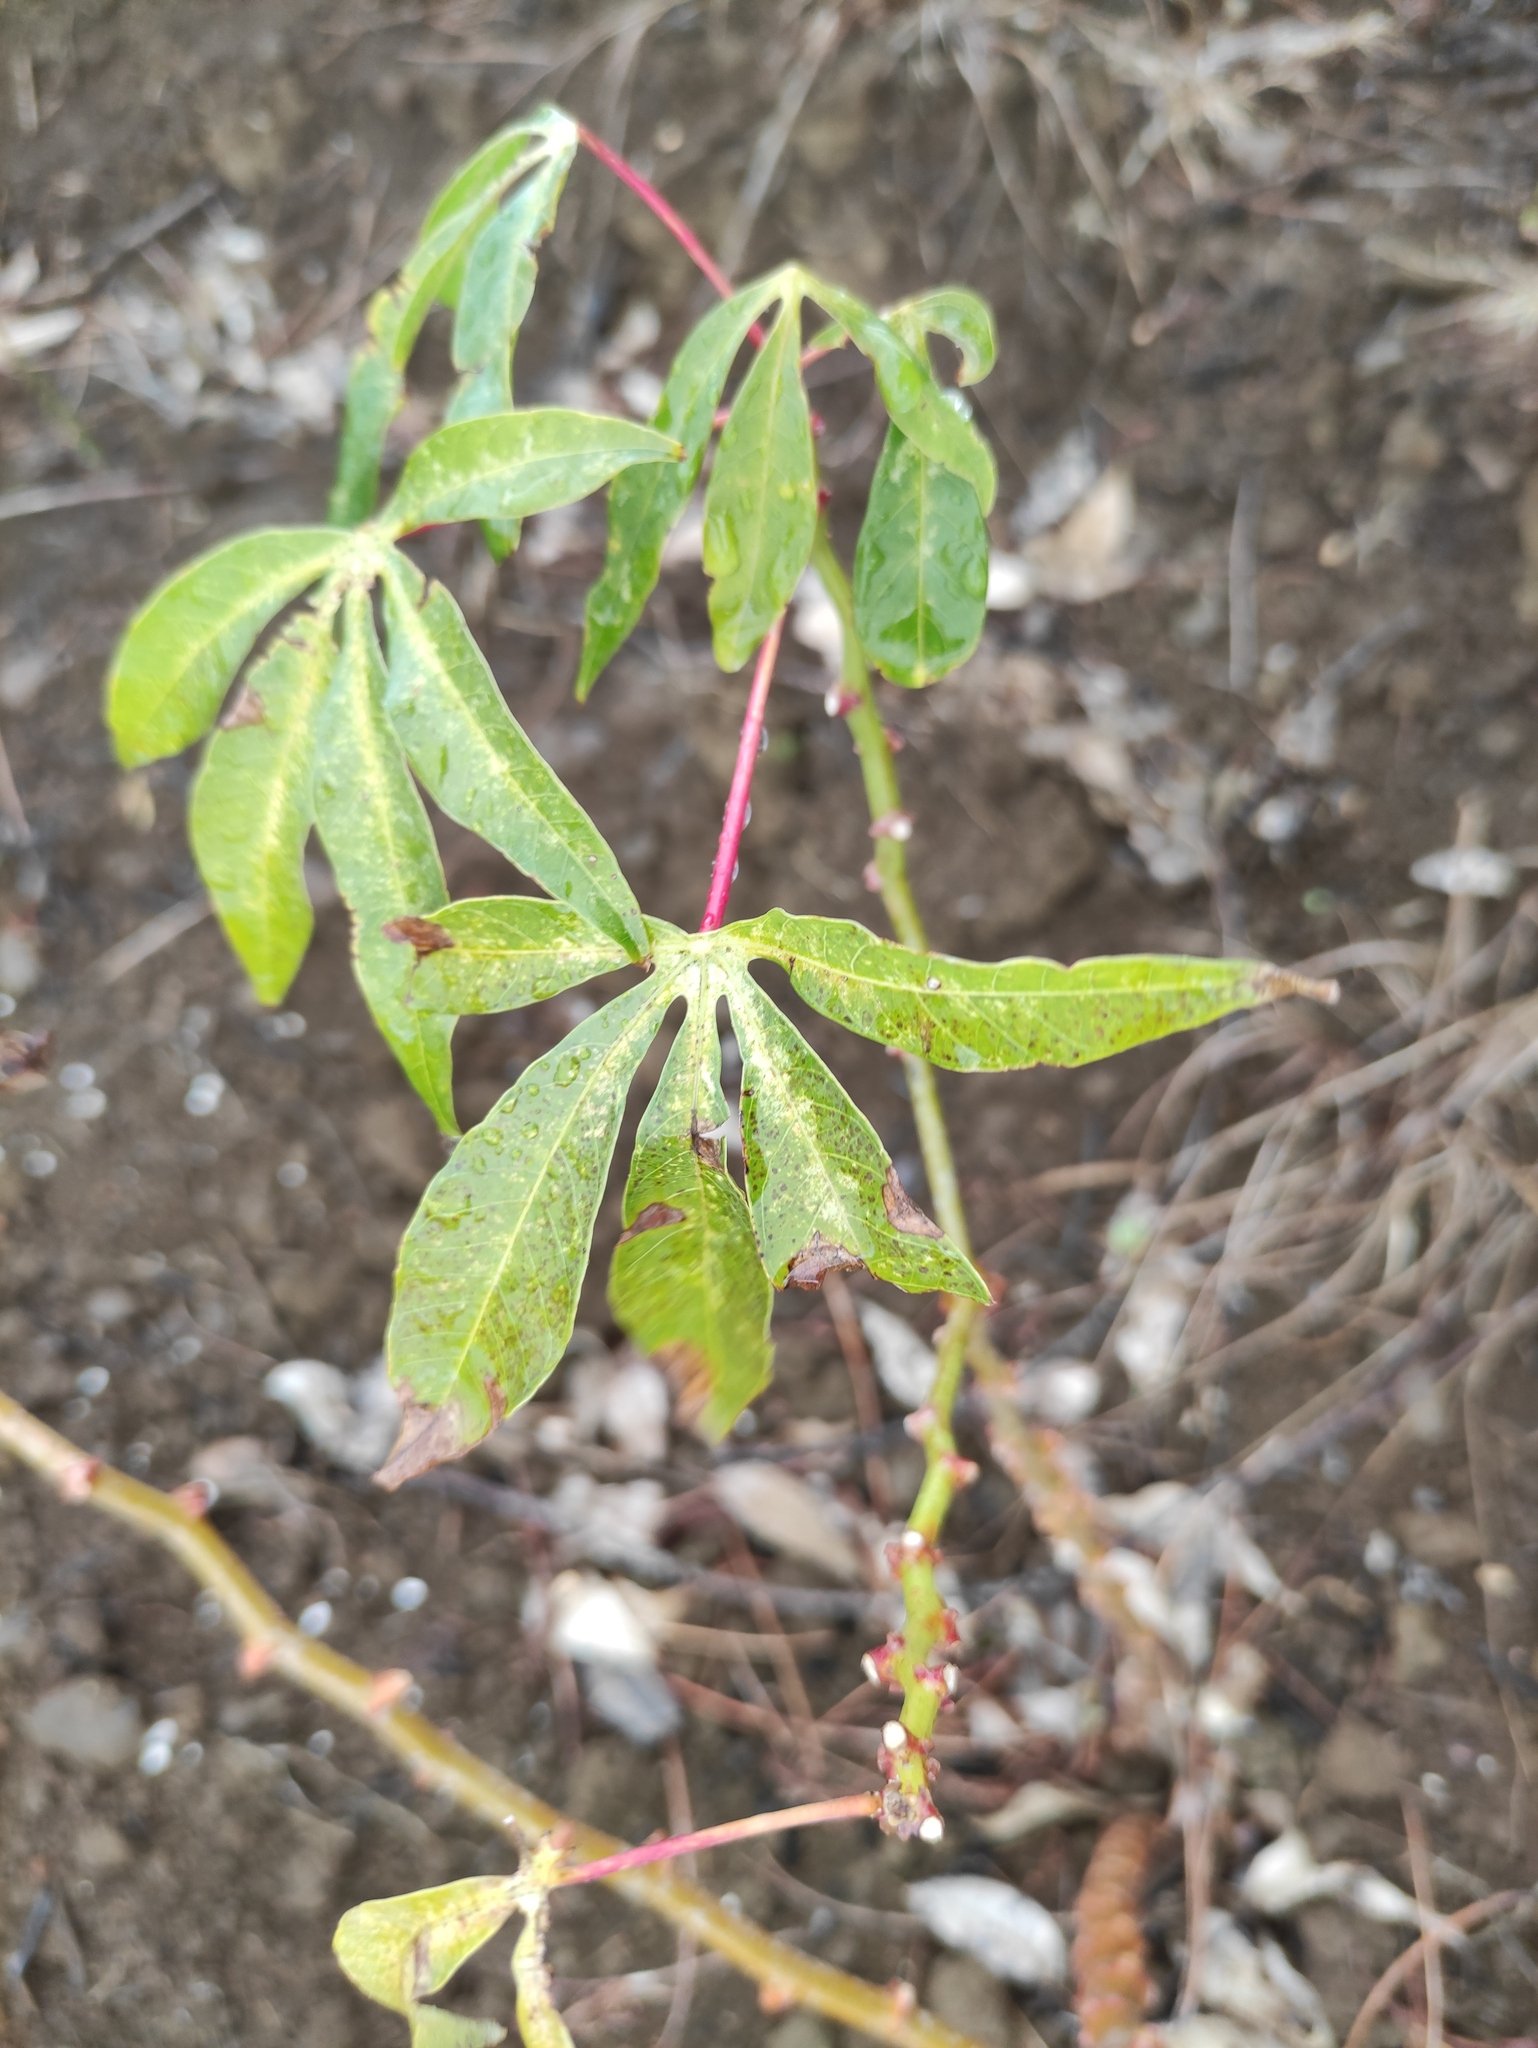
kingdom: Plantae
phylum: Tracheophyta
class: Magnoliopsida
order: Malpighiales
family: Euphorbiaceae
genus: Manihot
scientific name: Manihot esculenta
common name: Cassava
